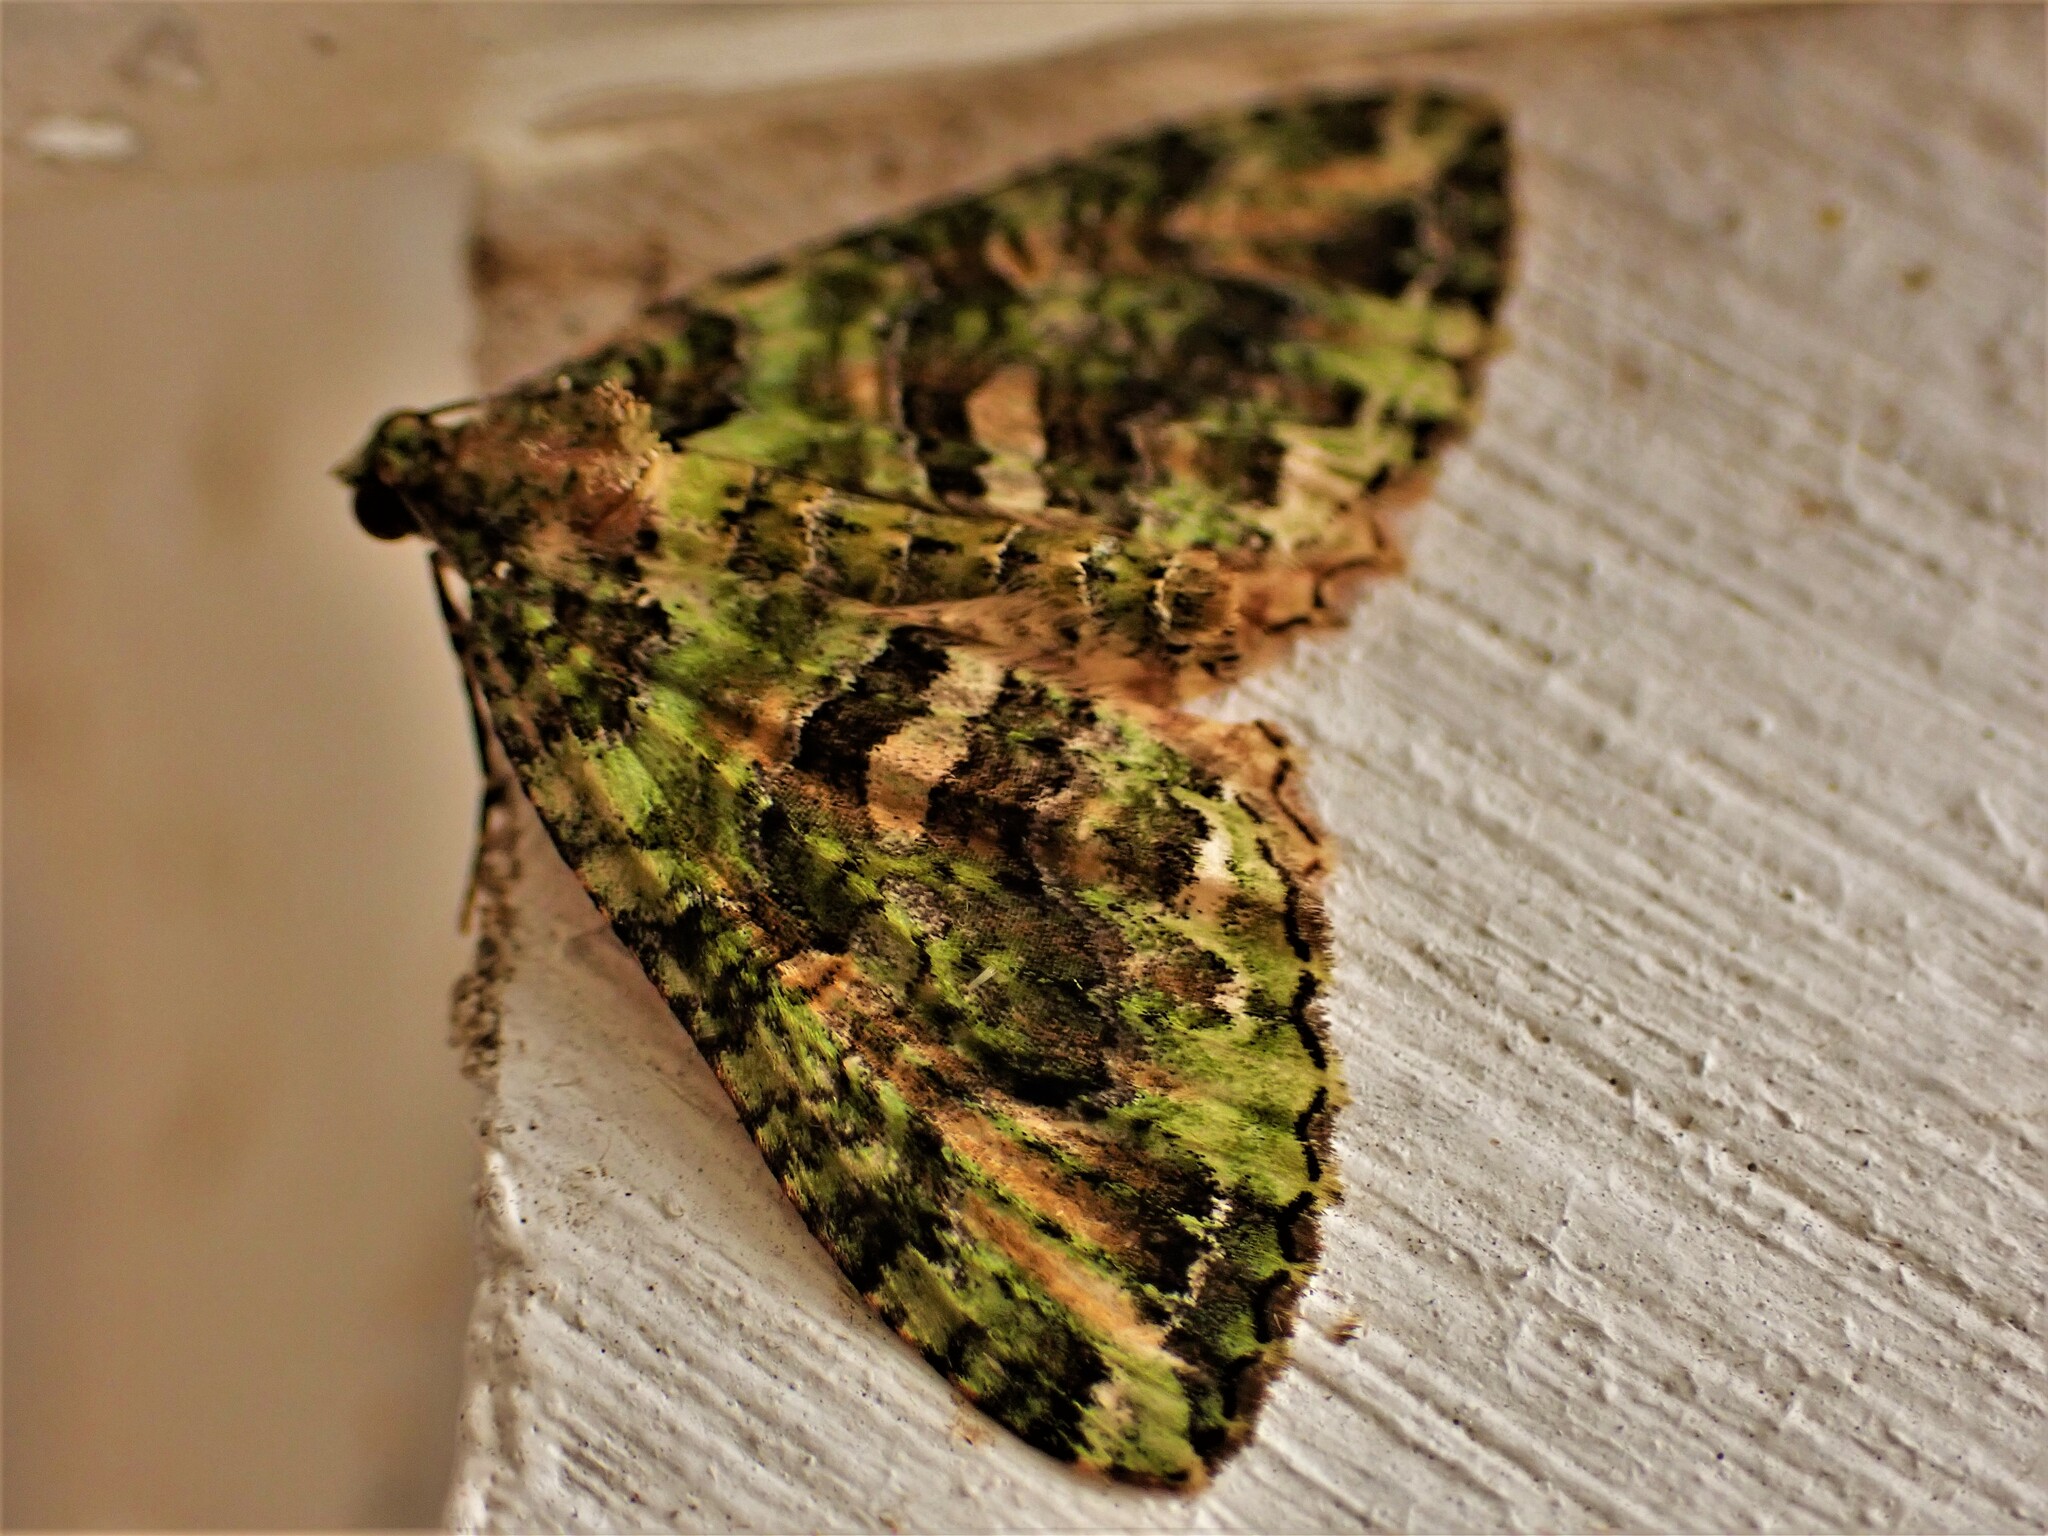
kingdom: Animalia
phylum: Arthropoda
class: Insecta
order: Lepidoptera
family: Geometridae
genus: Austrocidaria
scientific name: Austrocidaria similata
